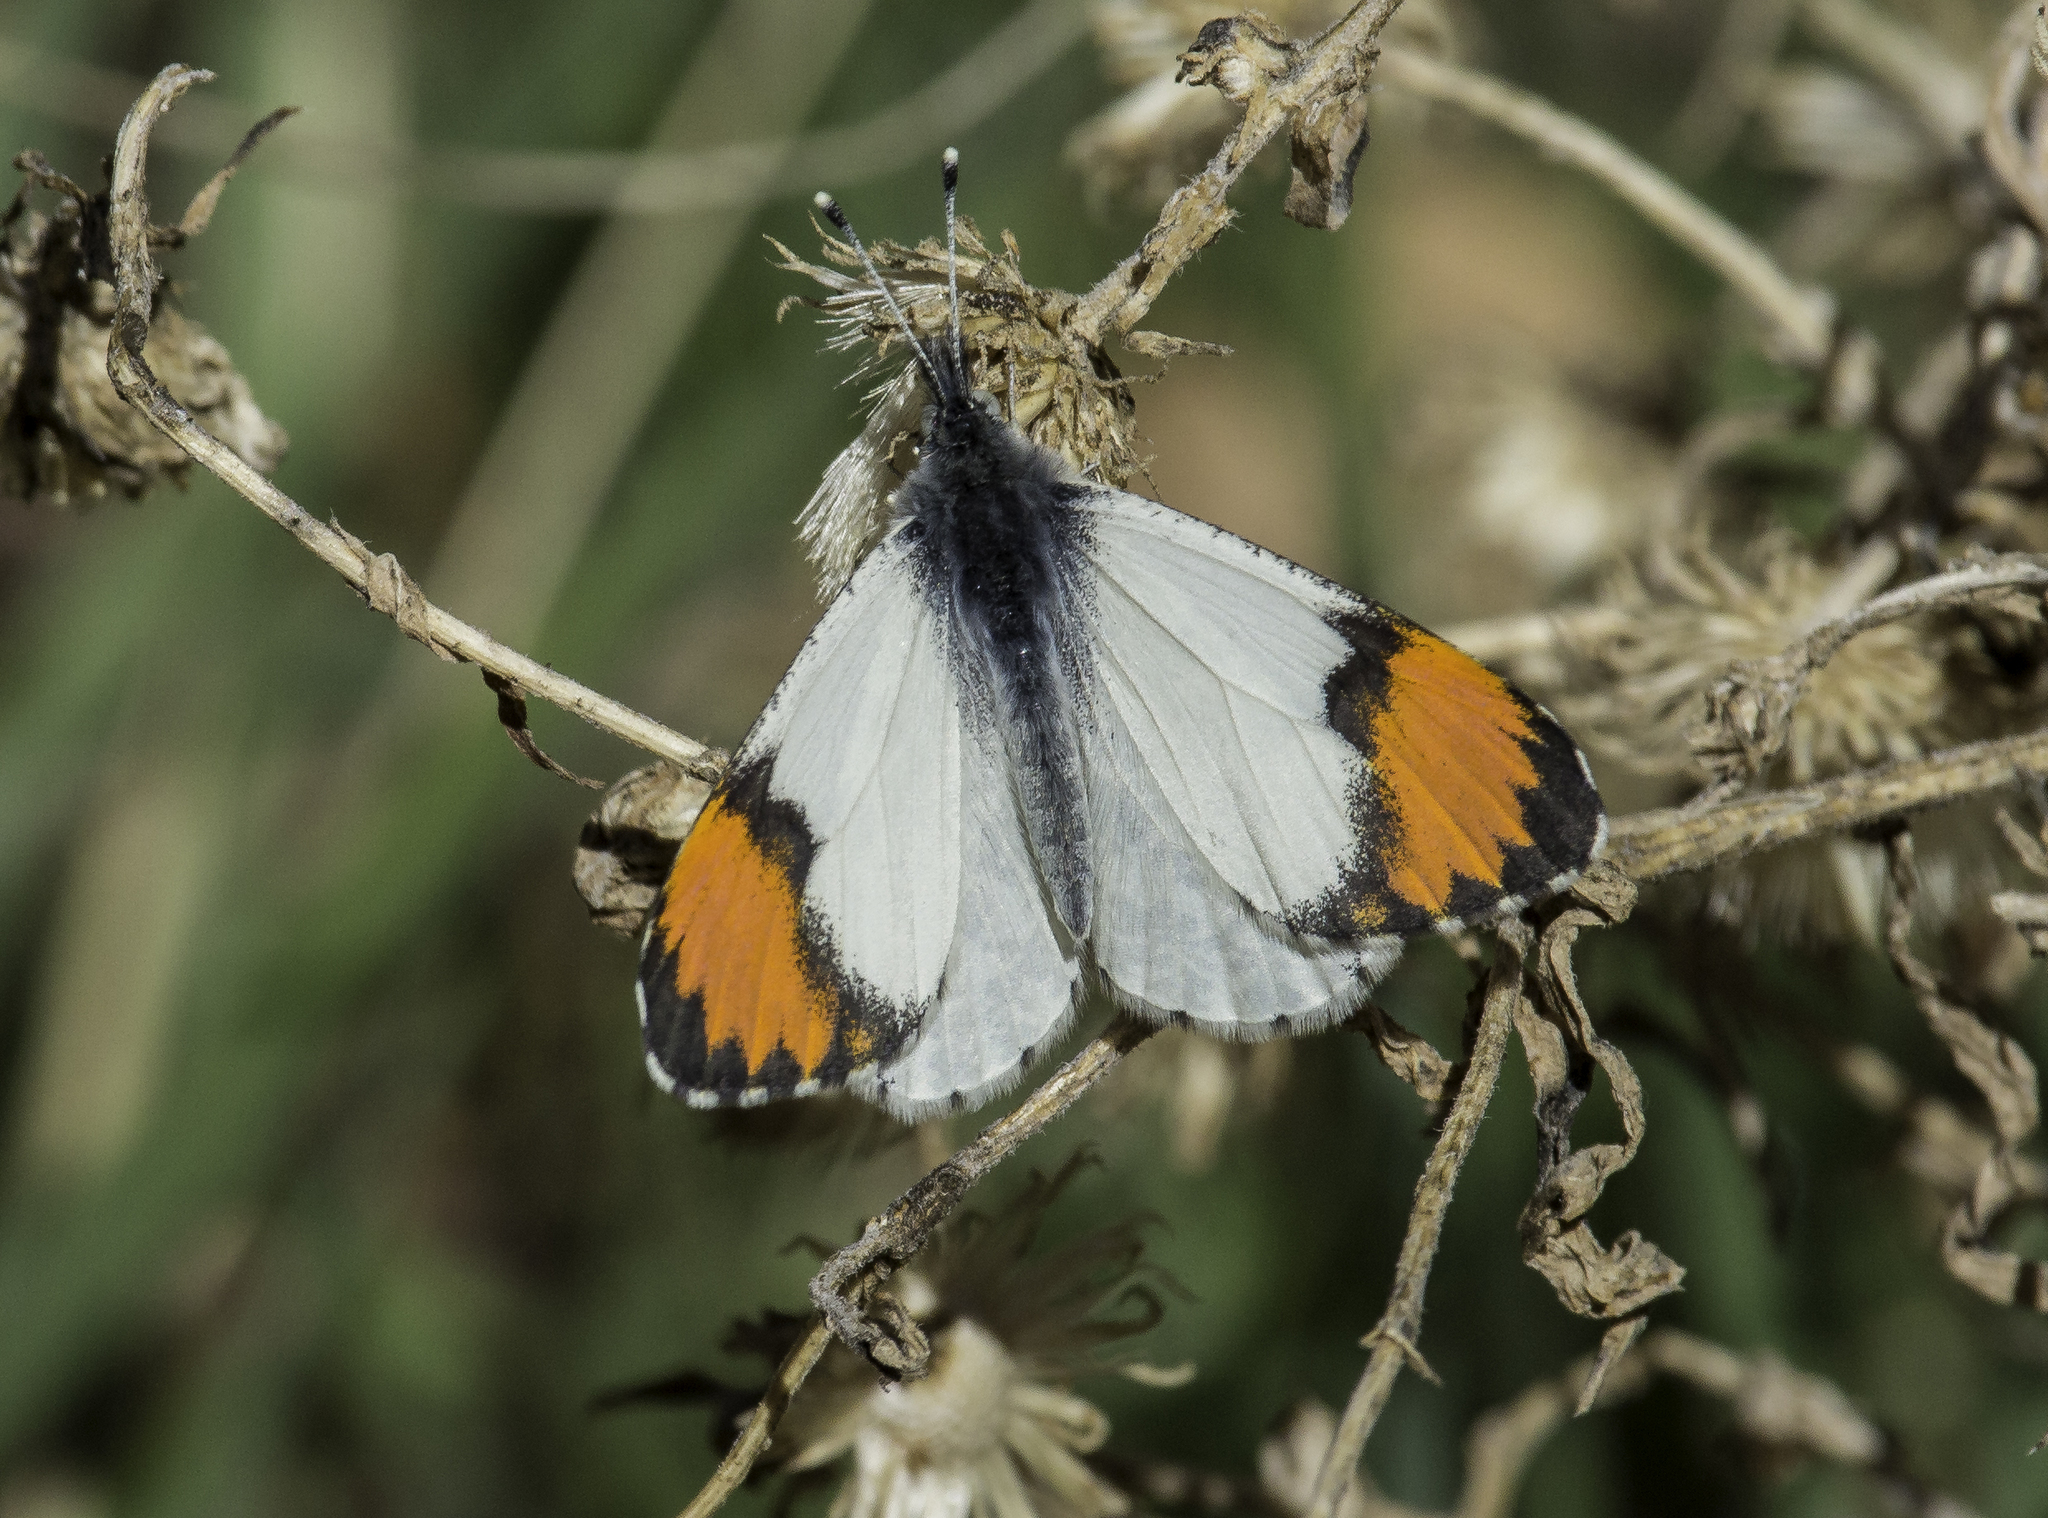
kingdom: Animalia
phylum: Arthropoda
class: Insecta
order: Lepidoptera
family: Pieridae
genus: Anthocharis
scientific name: Anthocharis thoosa
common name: Southwestern orangetip
